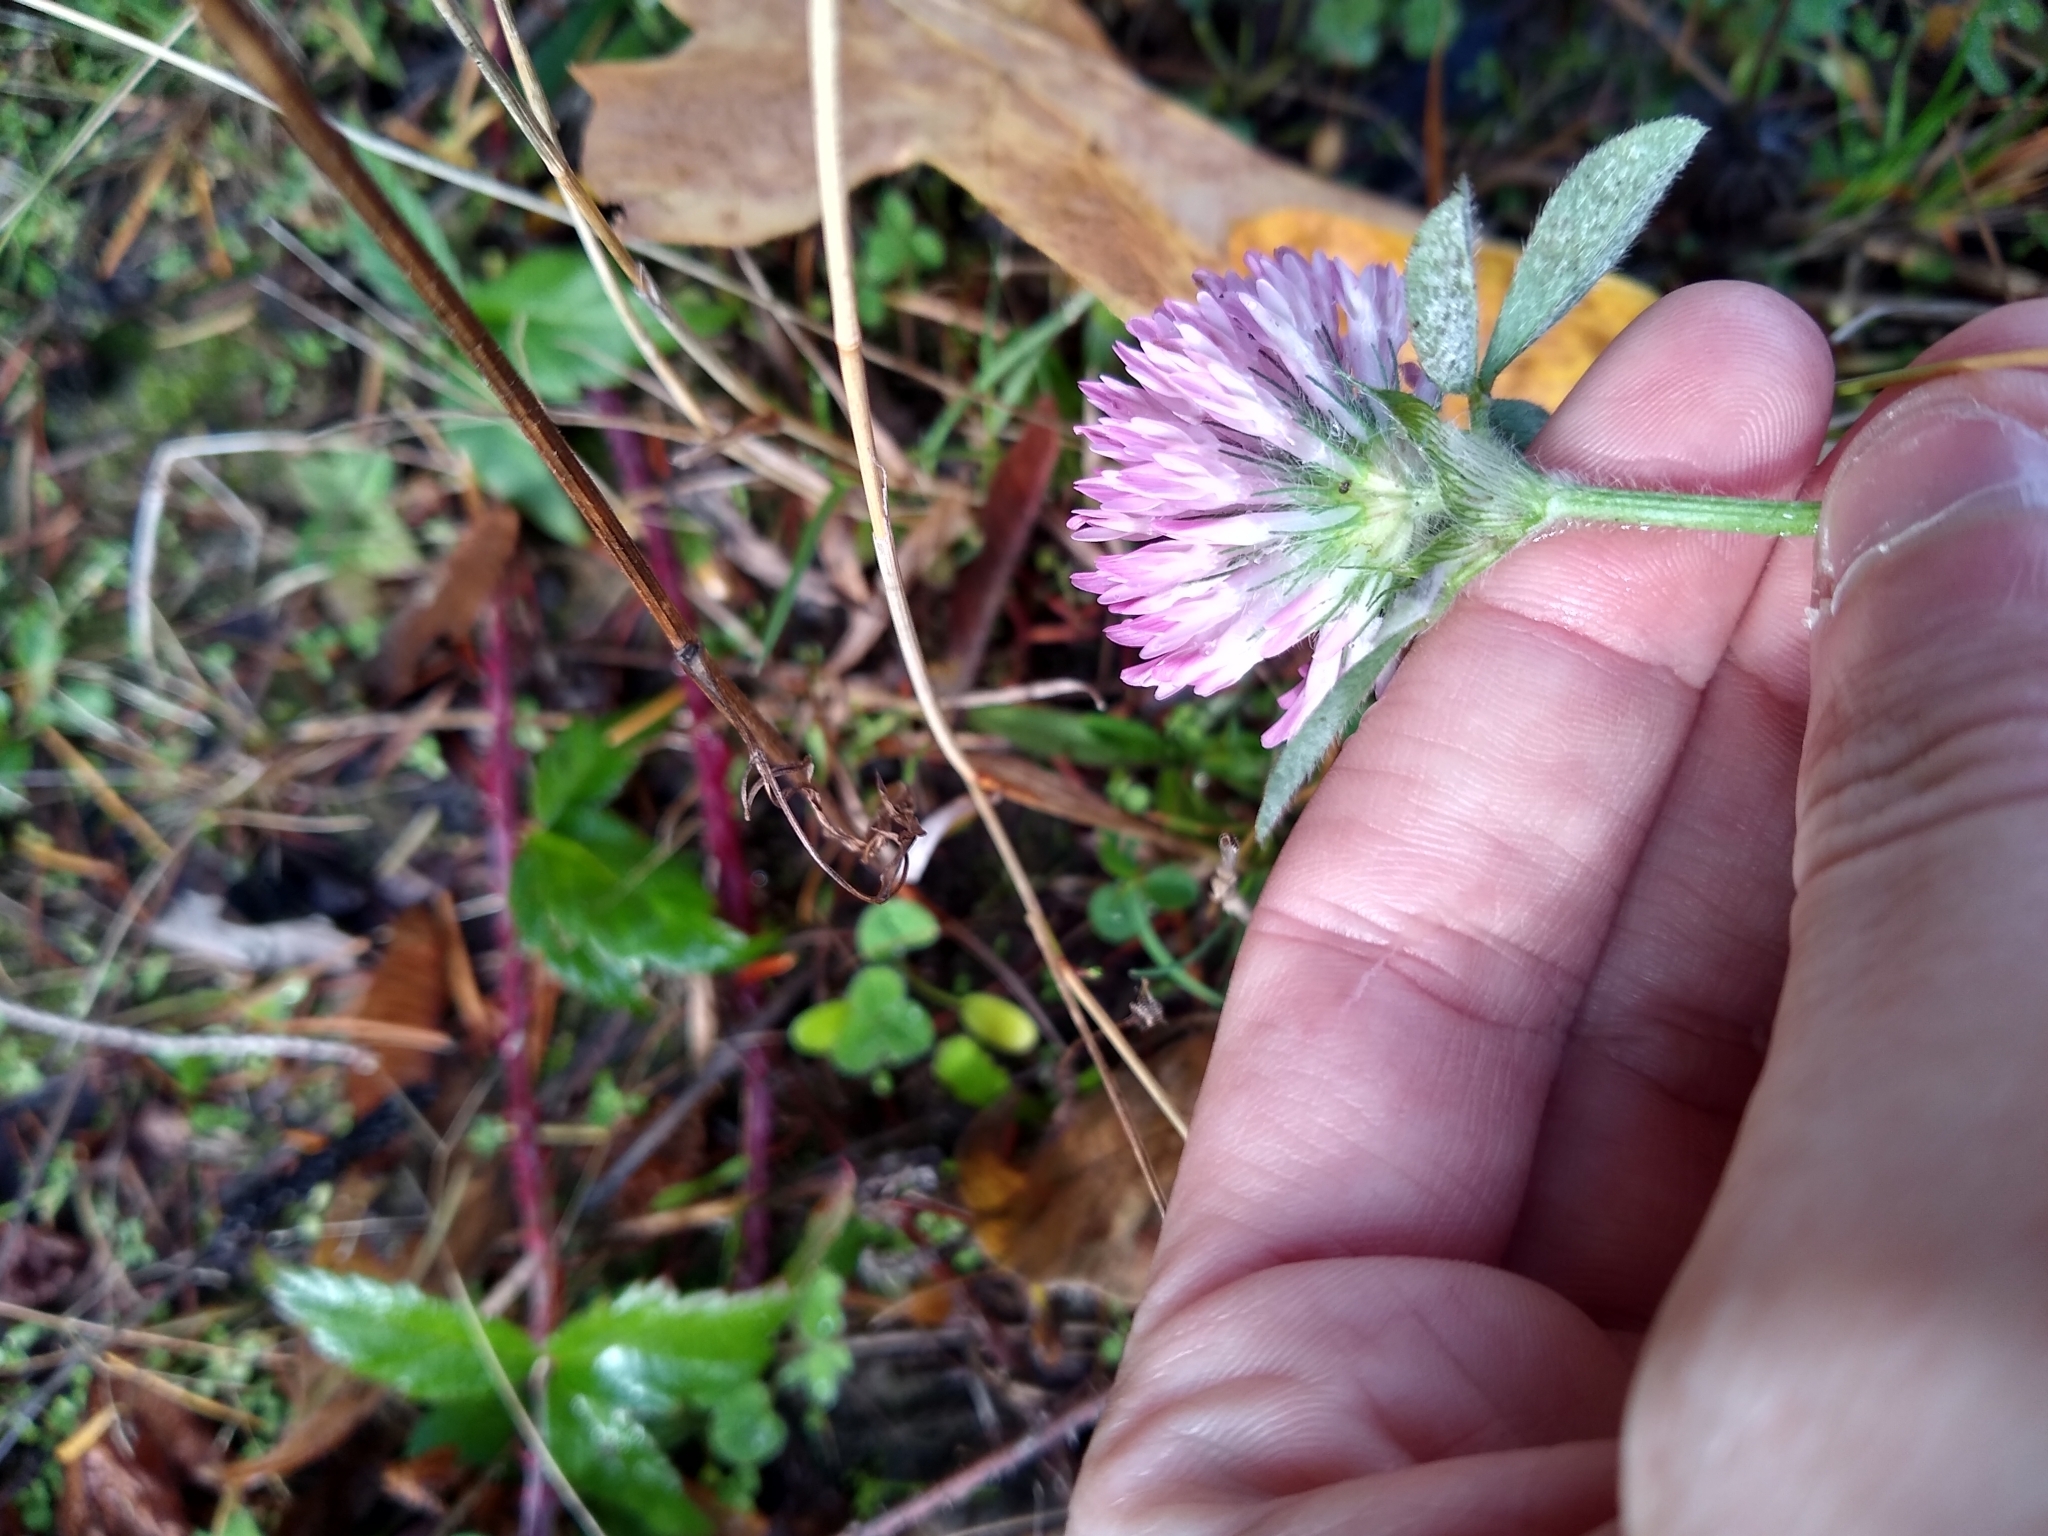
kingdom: Plantae
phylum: Tracheophyta
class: Magnoliopsida
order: Fabales
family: Fabaceae
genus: Trifolium
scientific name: Trifolium pratense
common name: Red clover
